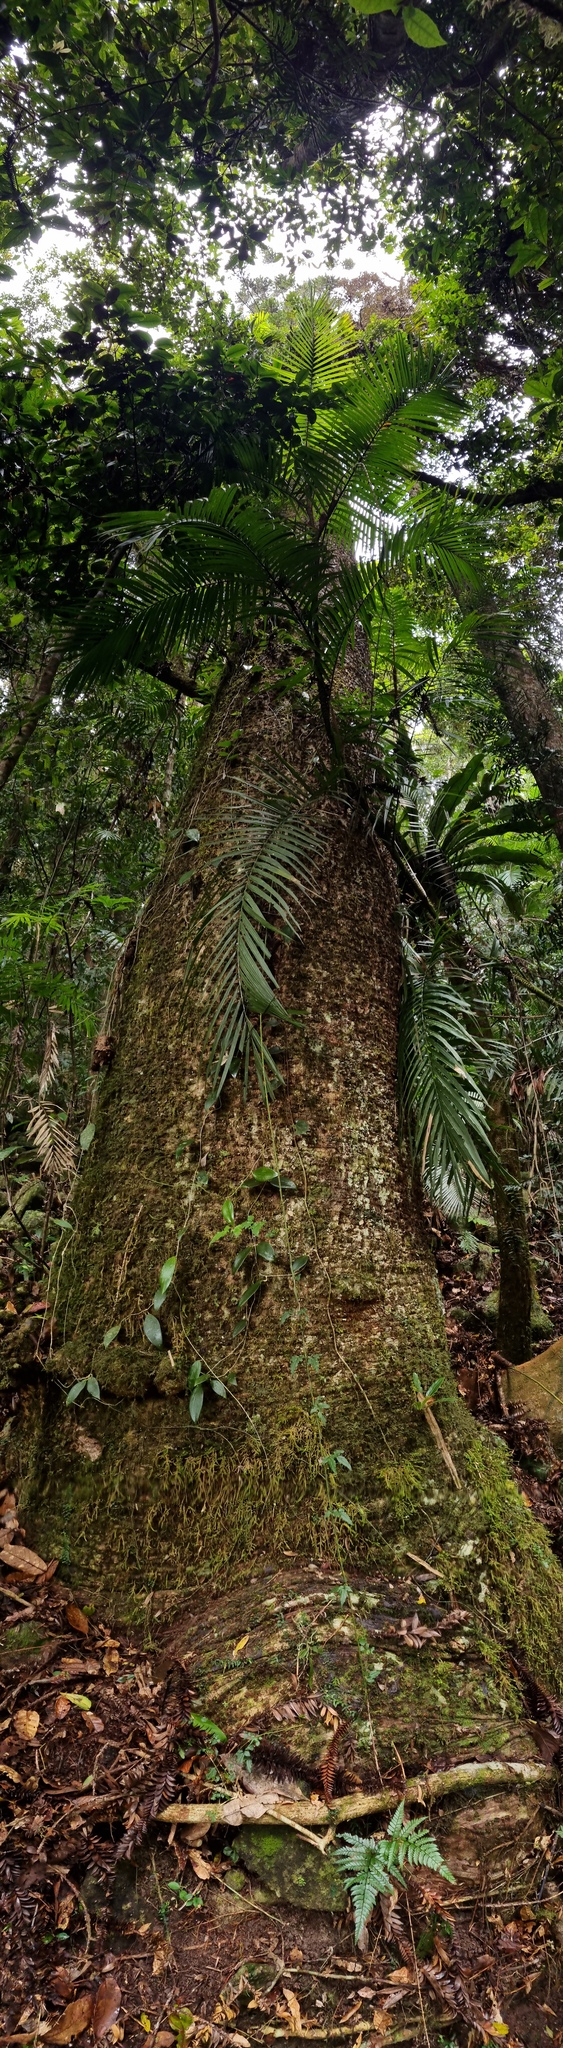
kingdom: Plantae
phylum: Tracheophyta
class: Pinopsida
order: Pinales
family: Araucariaceae
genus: Araucaria
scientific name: Araucaria bidwillii
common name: Moreton-bay-pine
